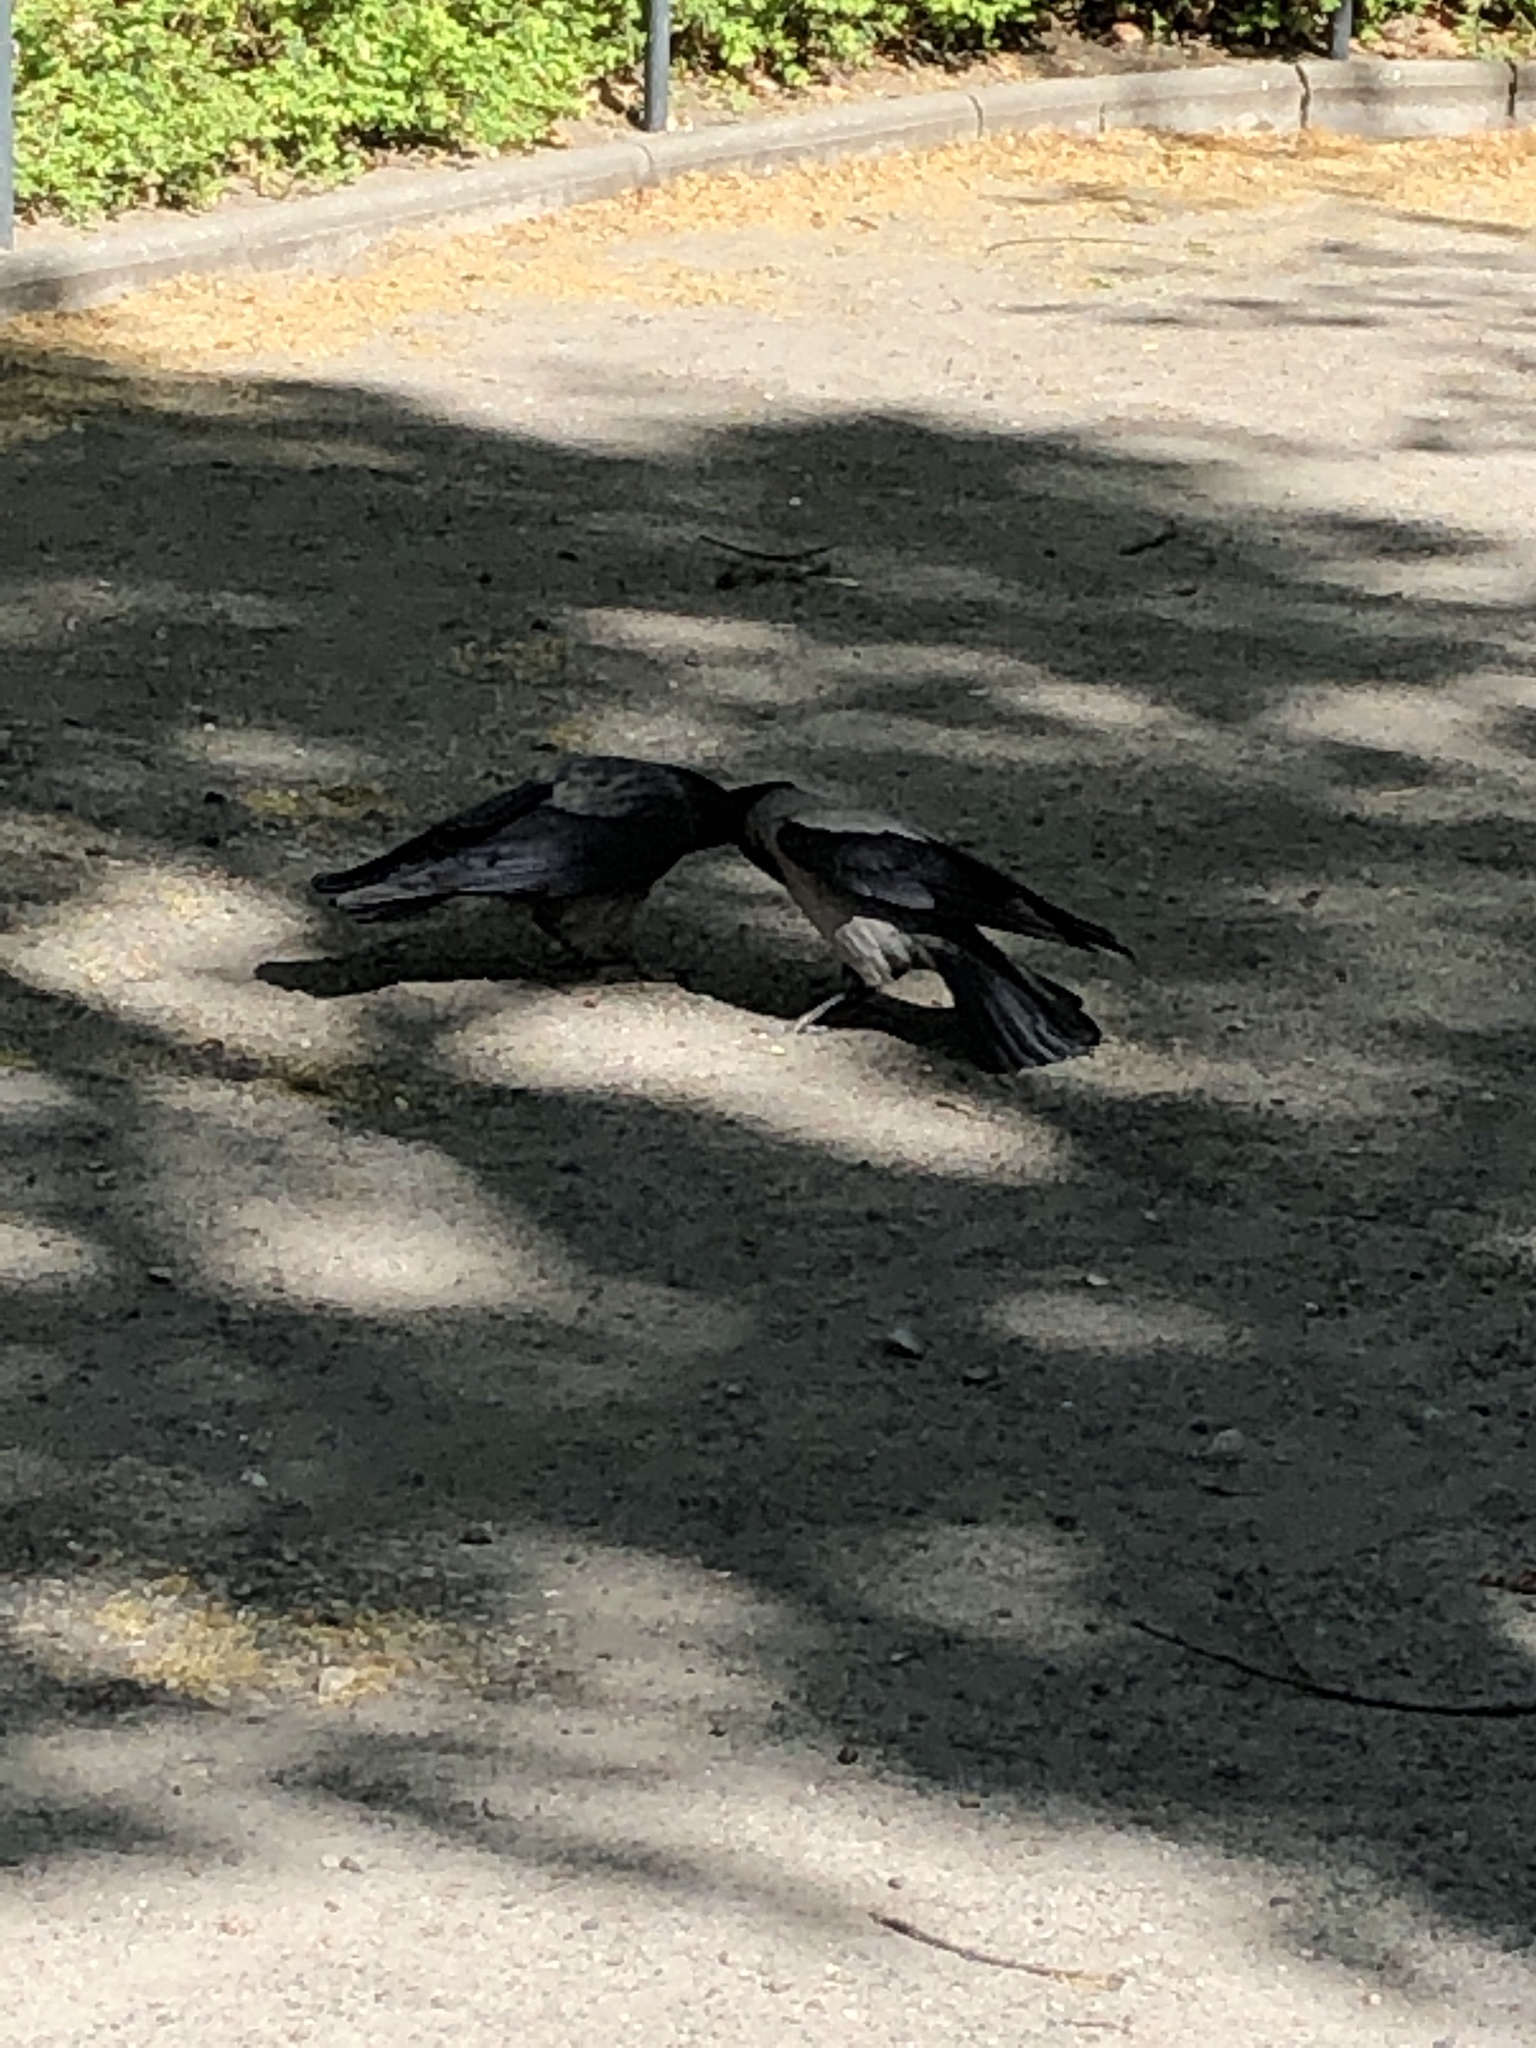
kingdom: Animalia
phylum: Chordata
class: Aves
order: Passeriformes
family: Corvidae
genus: Corvus
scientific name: Corvus
